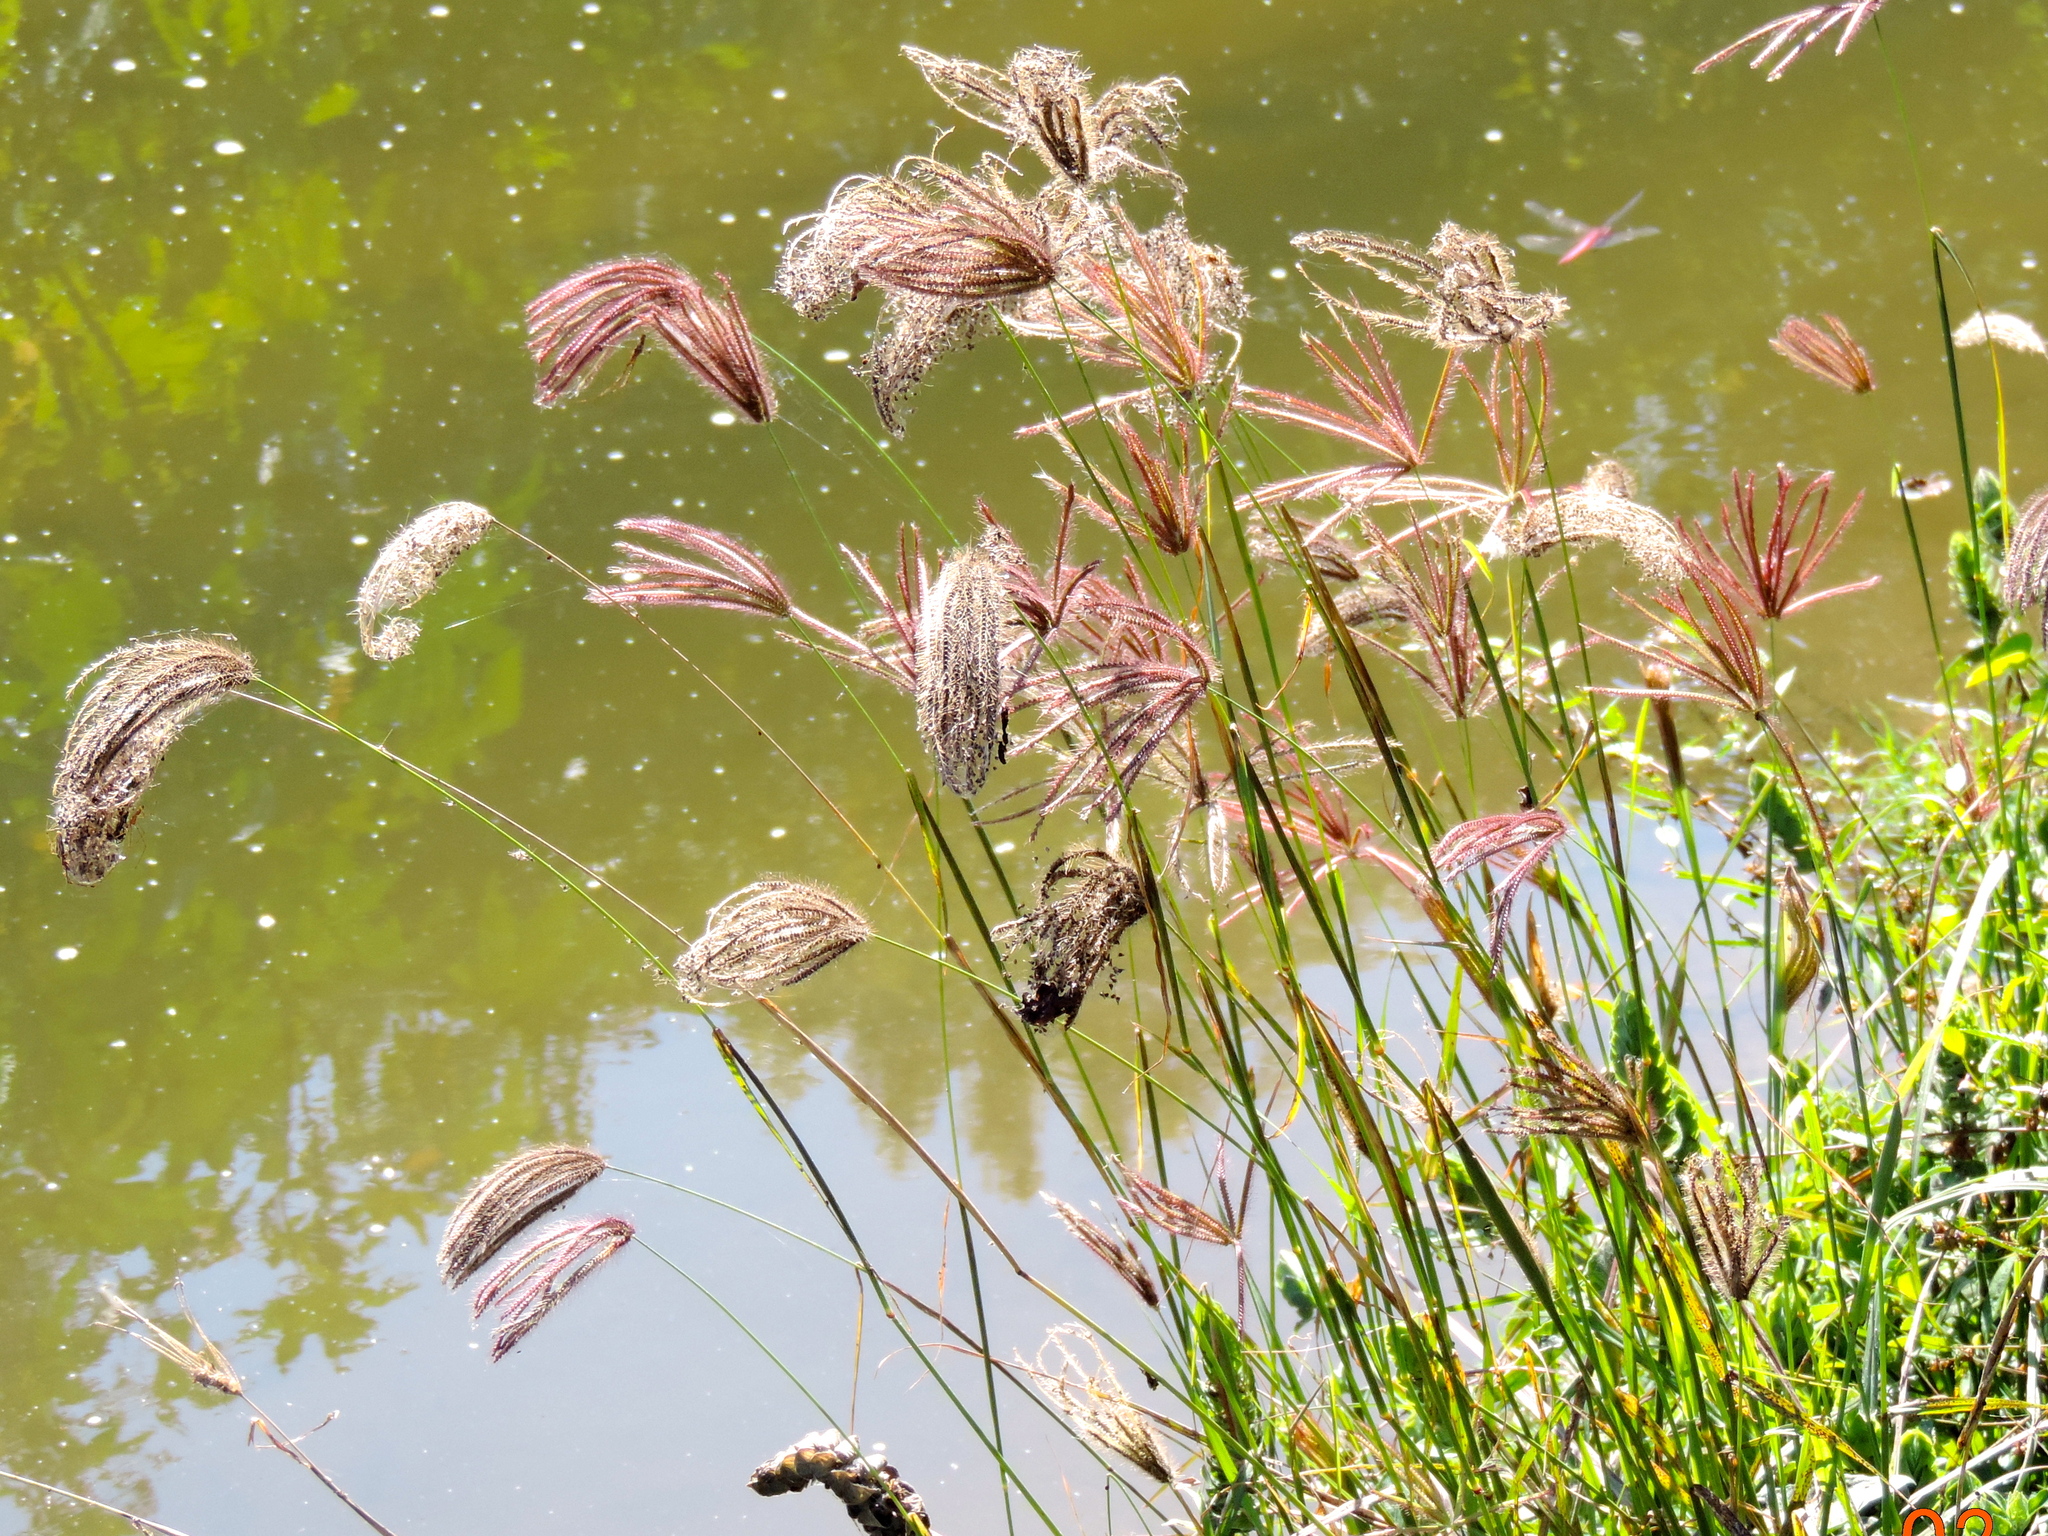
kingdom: Plantae
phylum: Tracheophyta
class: Liliopsida
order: Poales
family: Poaceae
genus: Chloris
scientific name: Chloris virgata
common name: Feathery rhodes-grass
